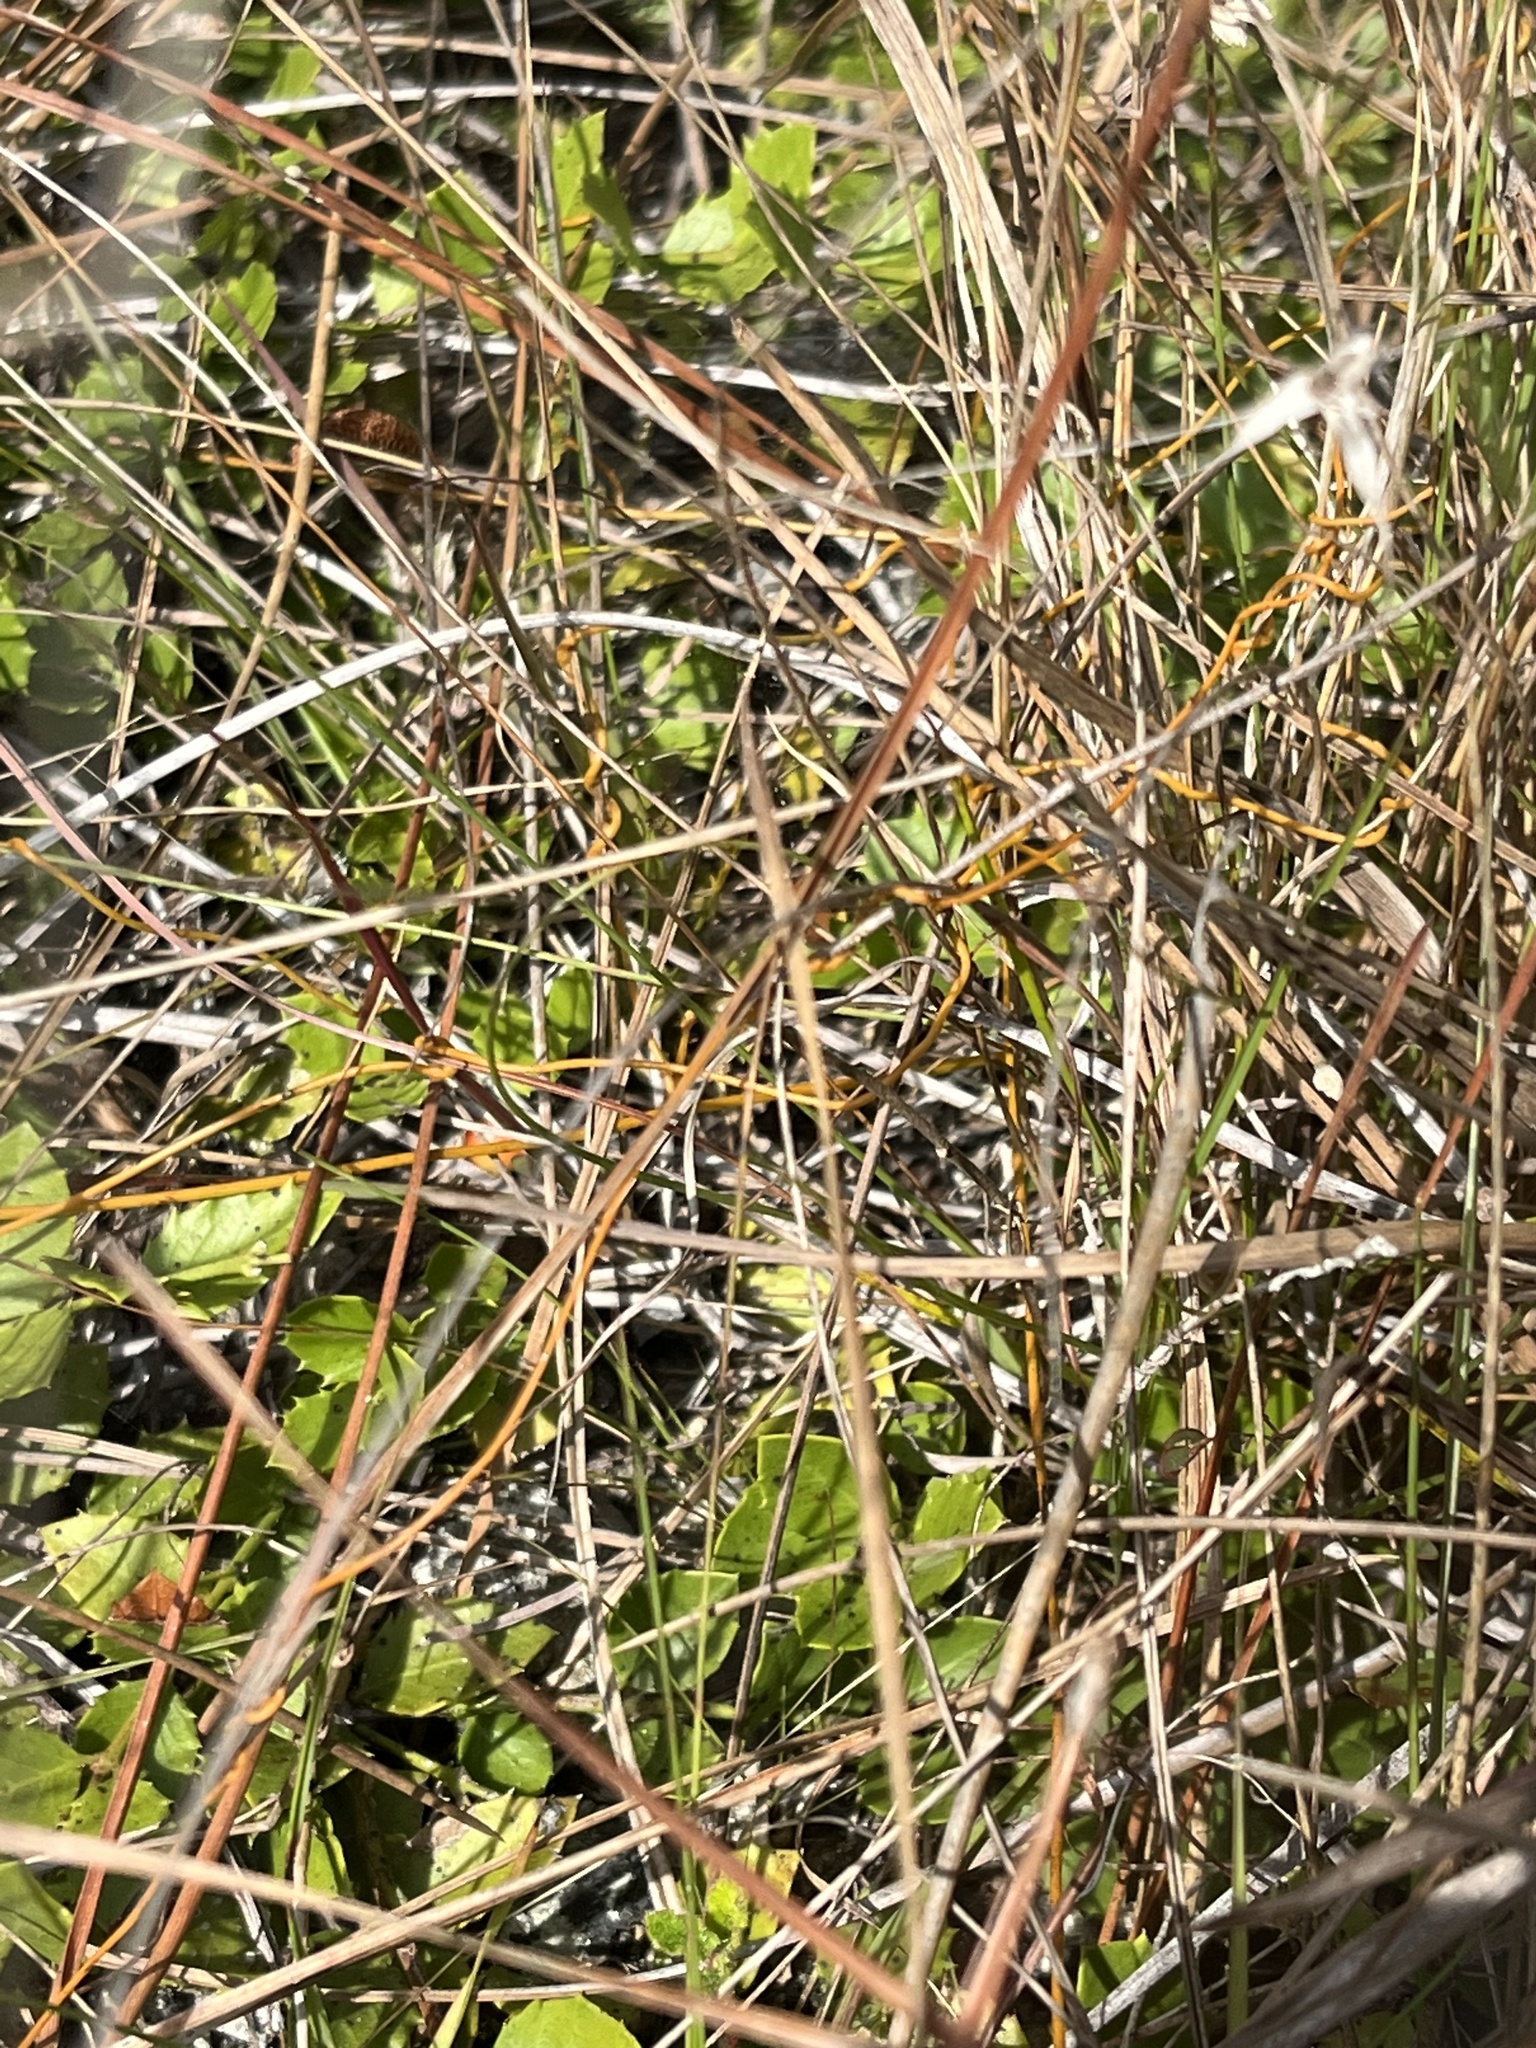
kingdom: Plantae
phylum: Tracheophyta
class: Magnoliopsida
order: Celastrales
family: Celastraceae
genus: Crossopetalum
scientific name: Crossopetalum ilicifolium
